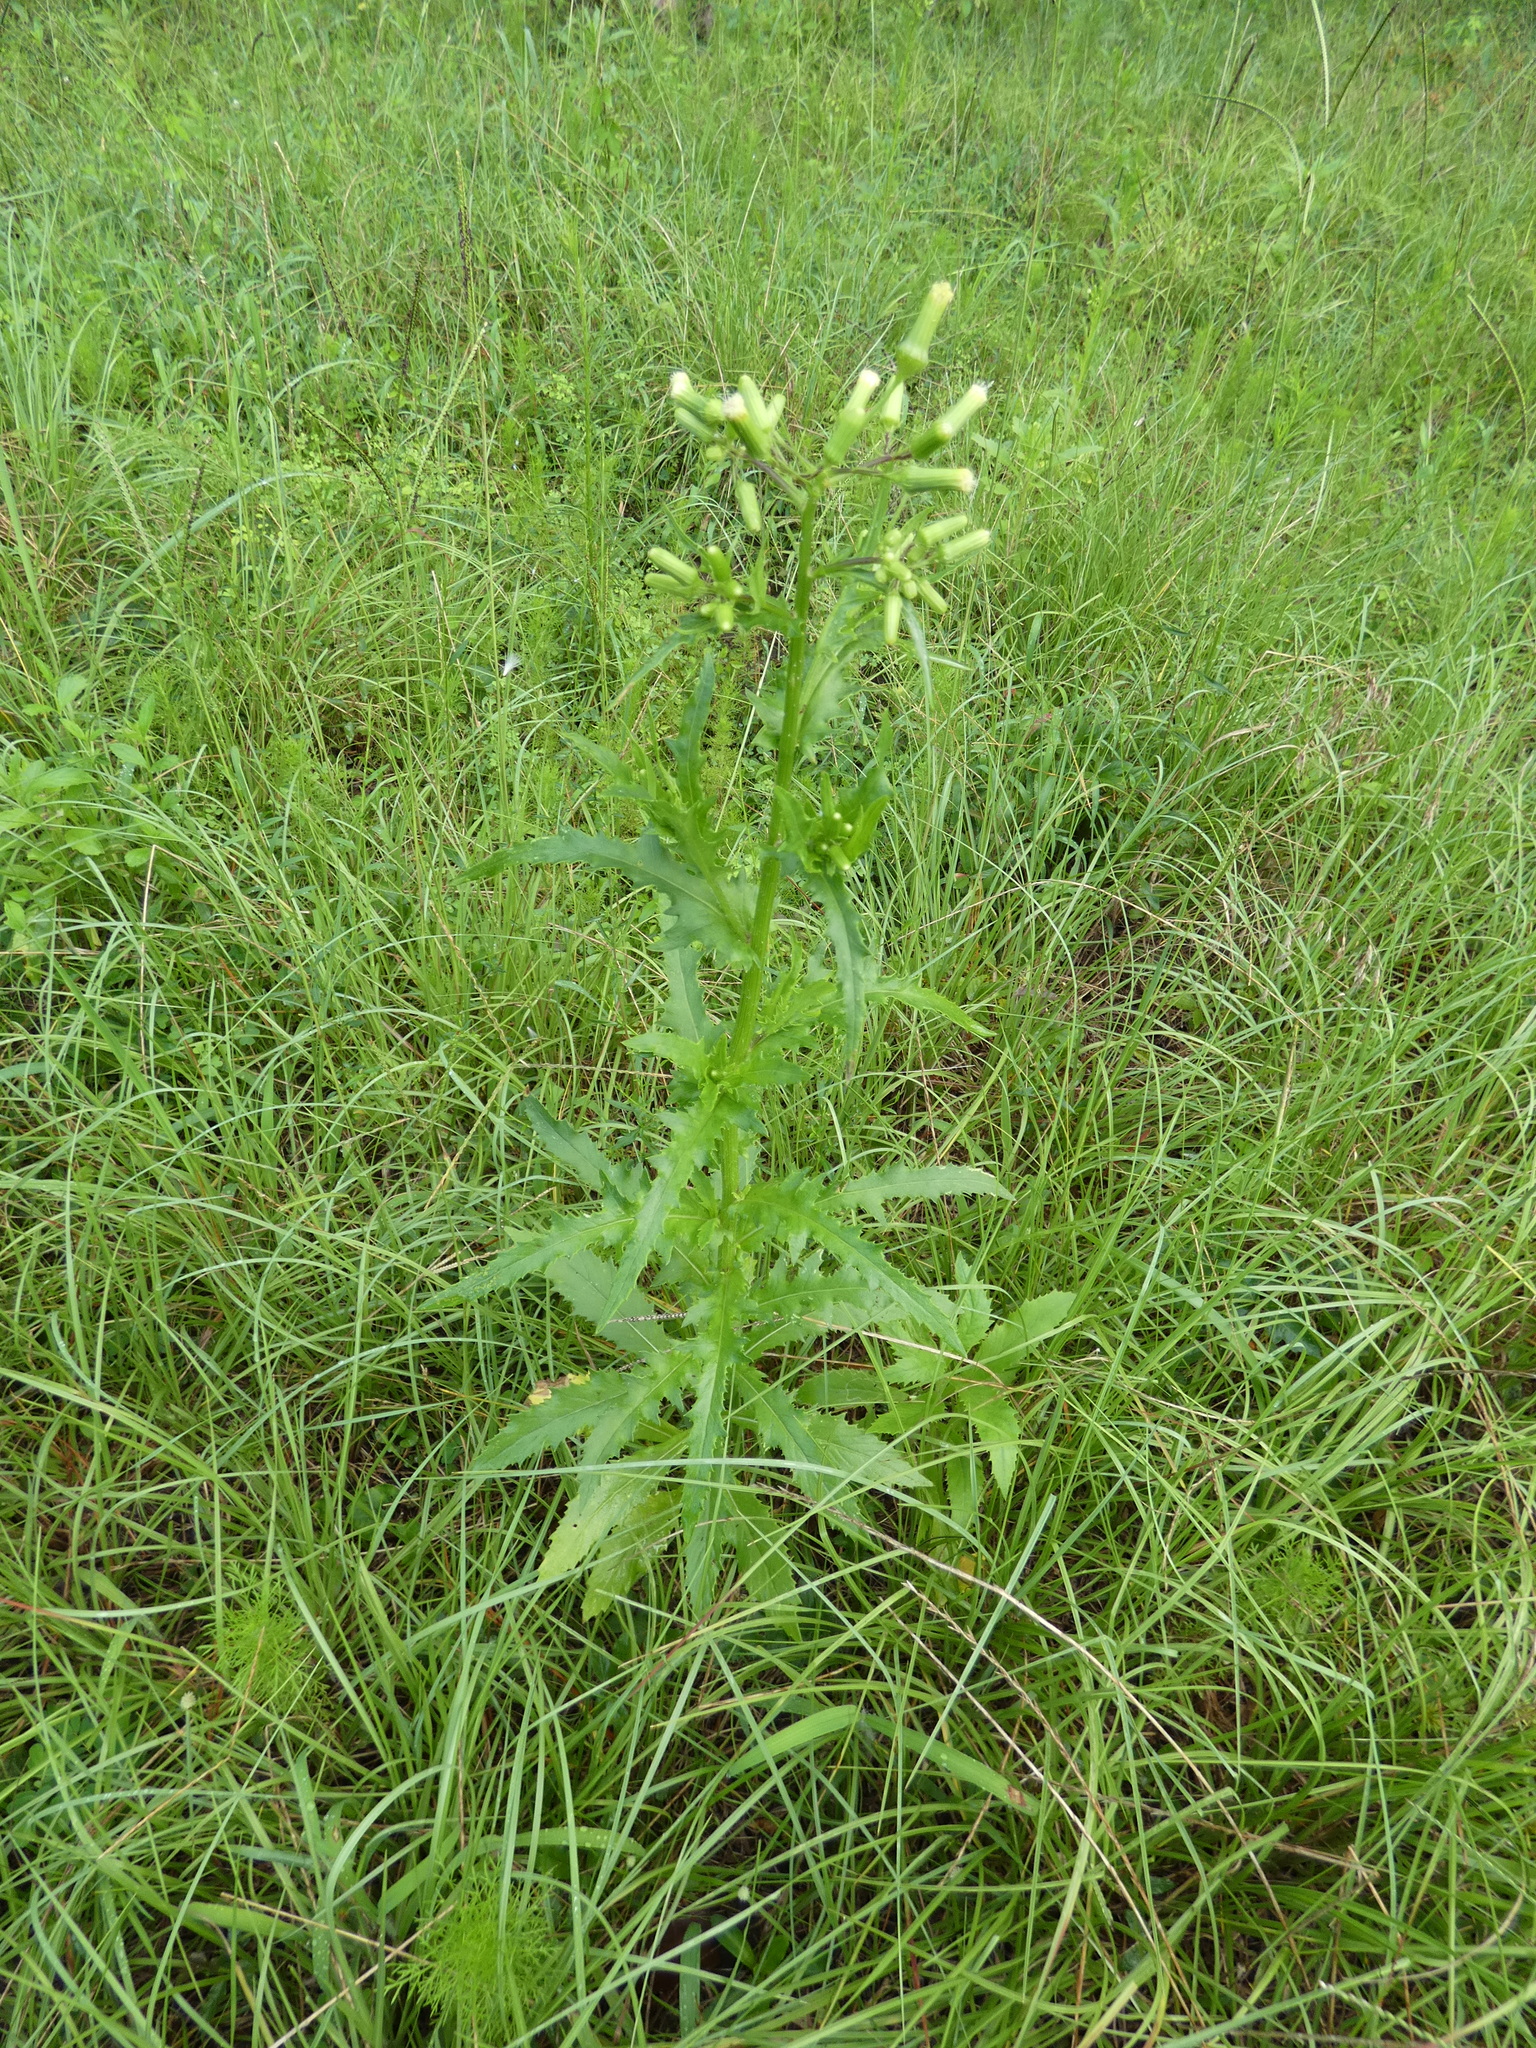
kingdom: Plantae
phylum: Tracheophyta
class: Magnoliopsida
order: Asterales
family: Asteraceae
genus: Erechtites
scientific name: Erechtites hieraciifolius
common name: American burnweed
